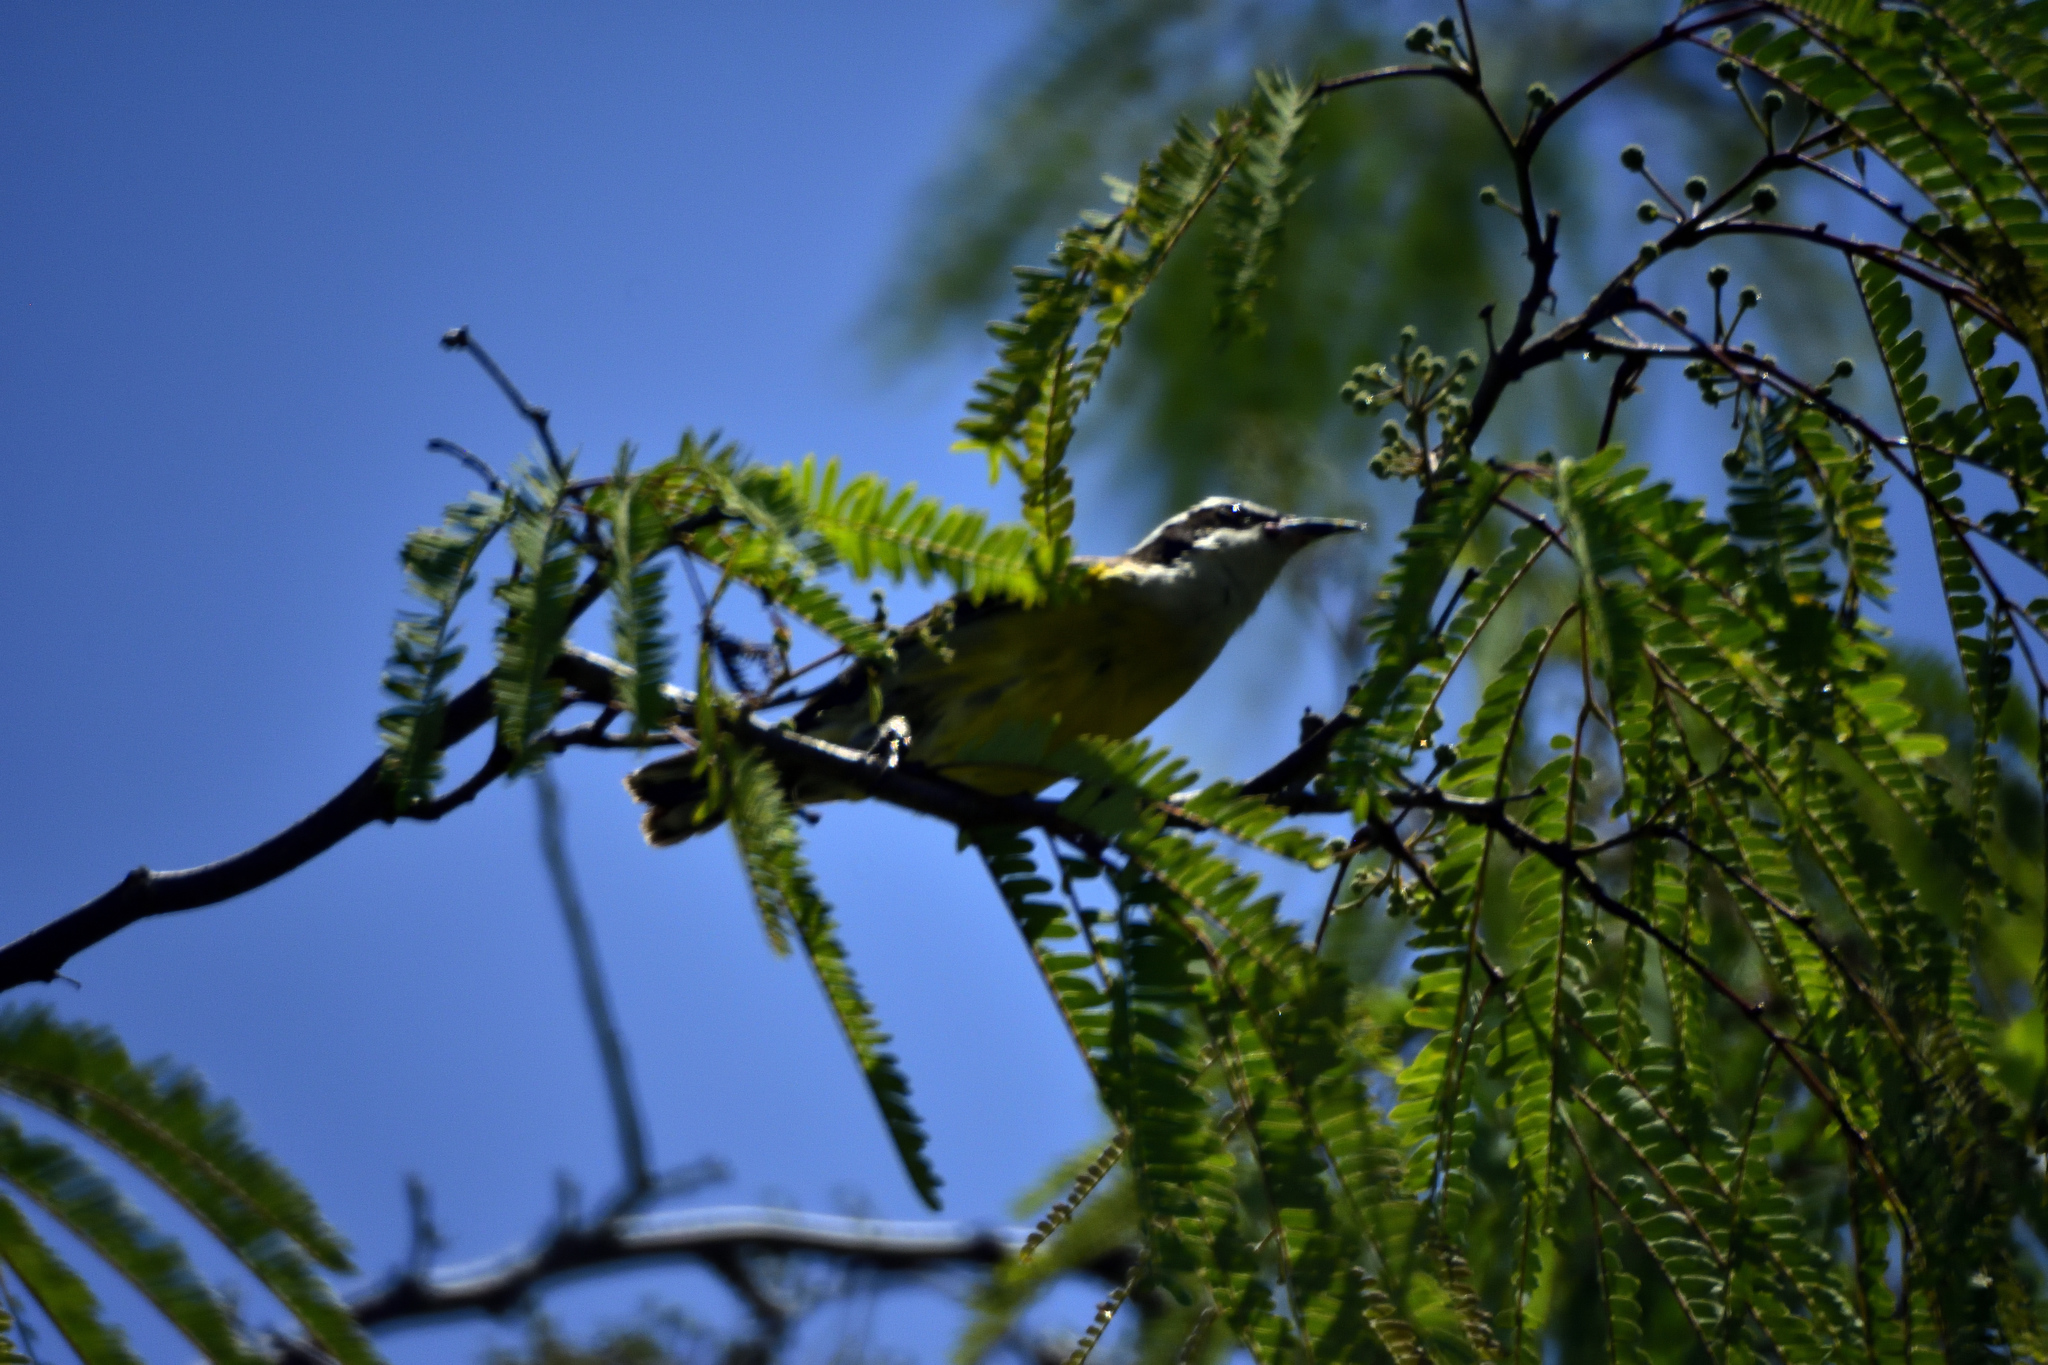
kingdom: Animalia
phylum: Chordata
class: Aves
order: Passeriformes
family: Thraupidae
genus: Coereba
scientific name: Coereba flaveola
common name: Bananaquit
